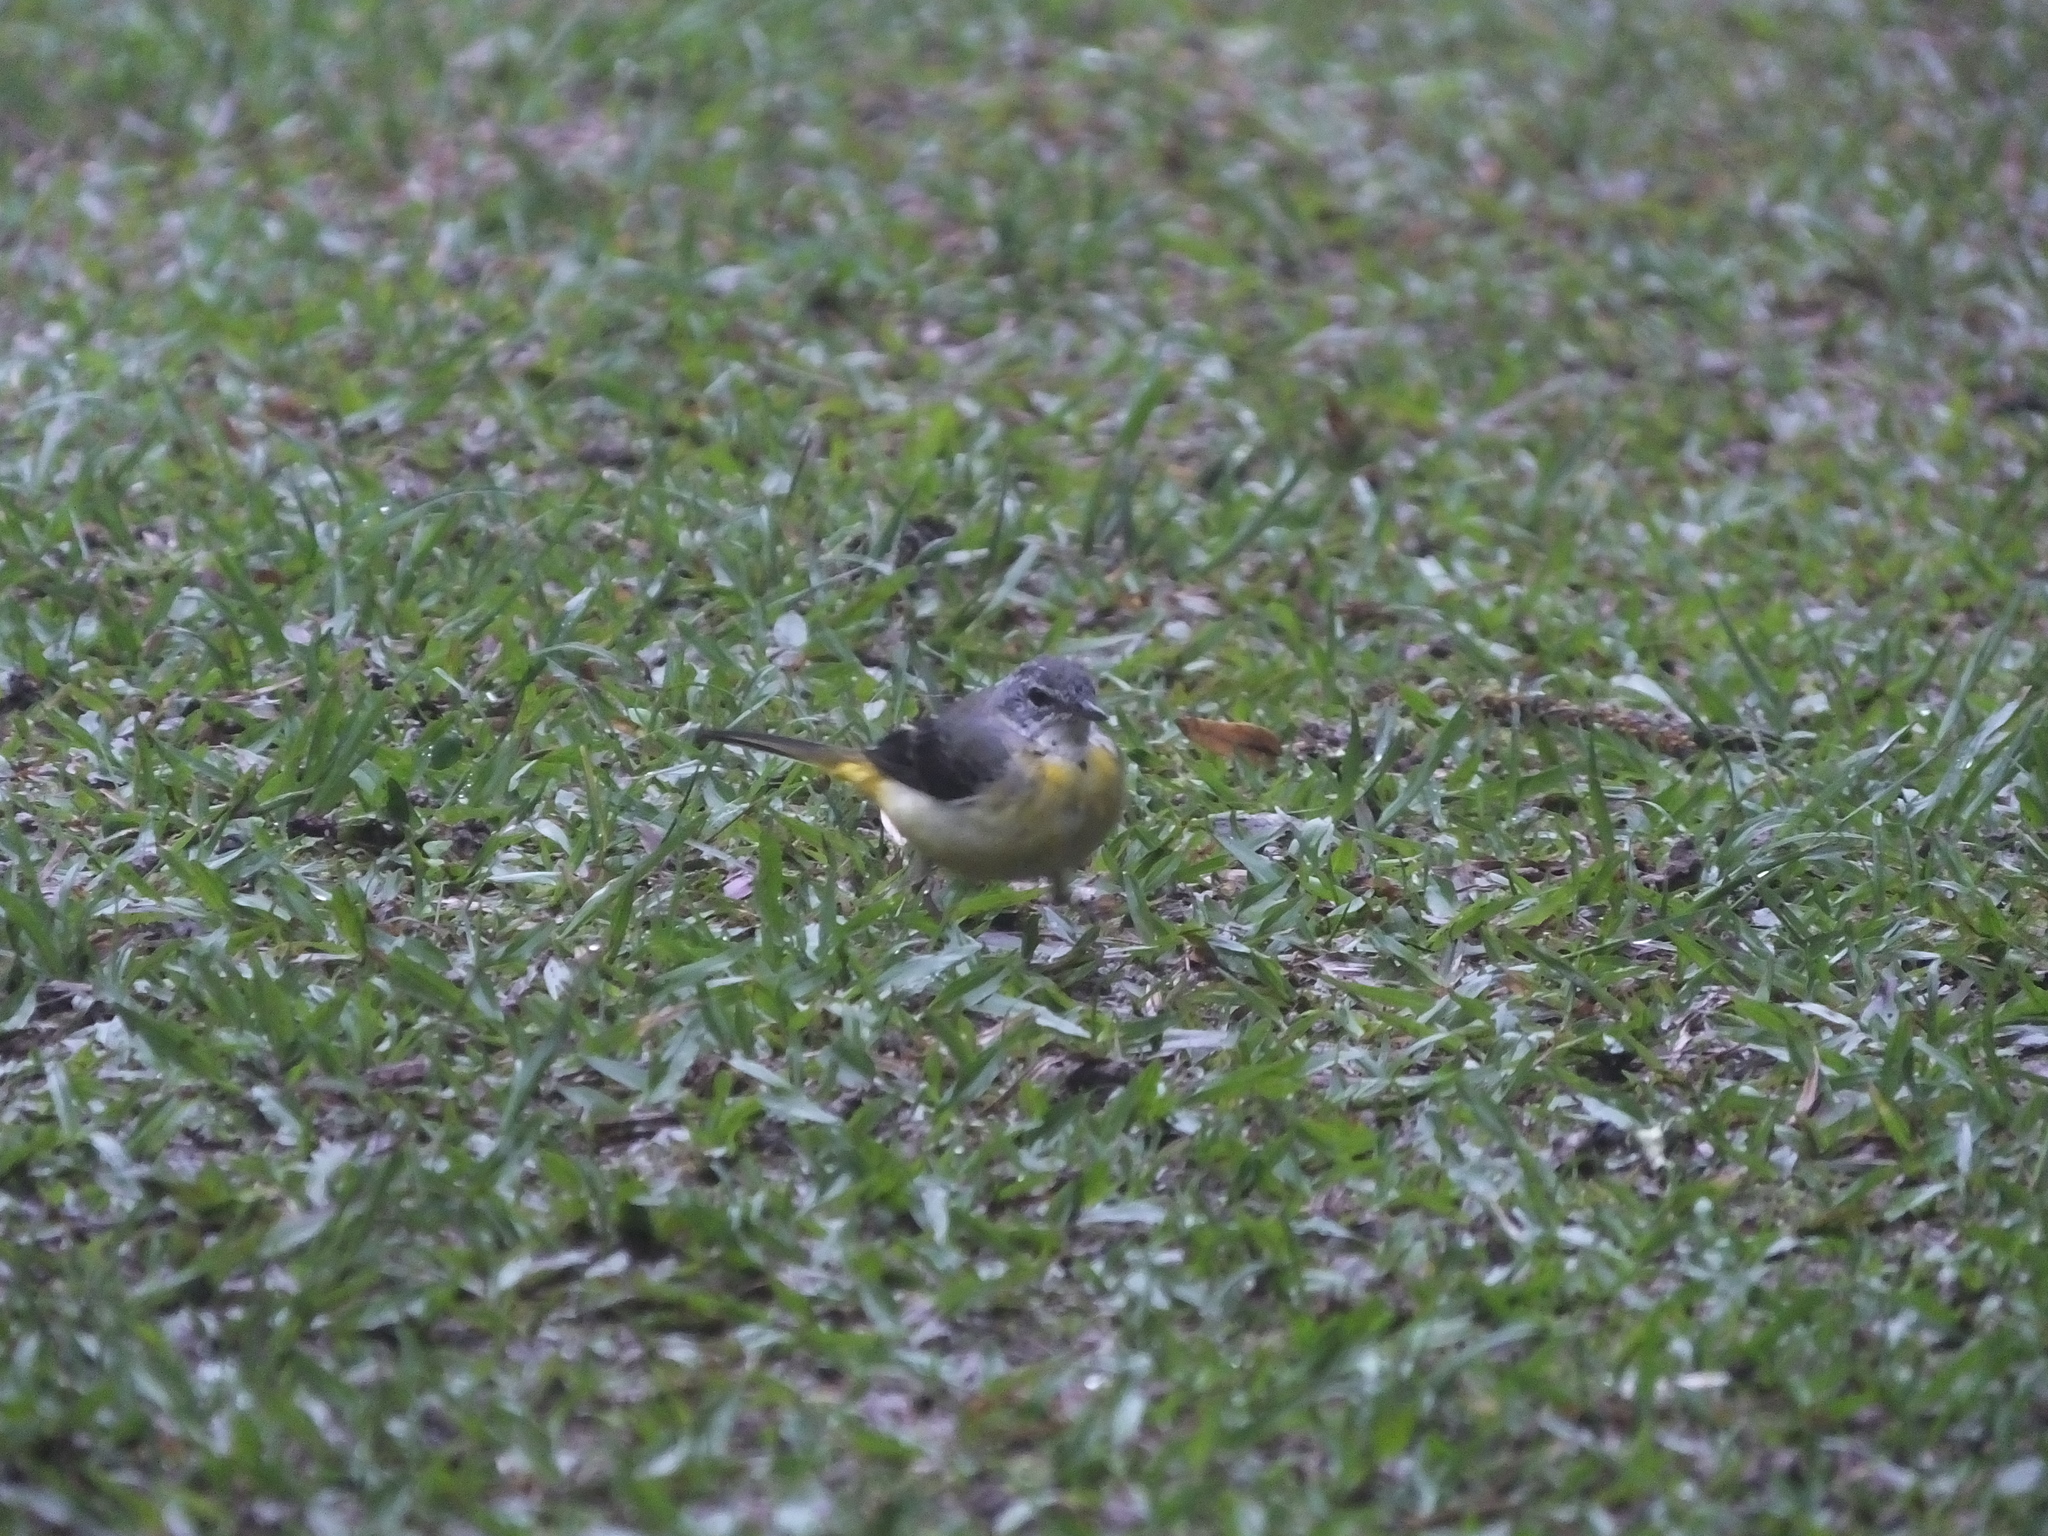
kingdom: Animalia
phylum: Chordata
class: Aves
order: Passeriformes
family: Motacillidae
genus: Motacilla
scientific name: Motacilla cinerea
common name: Grey wagtail
